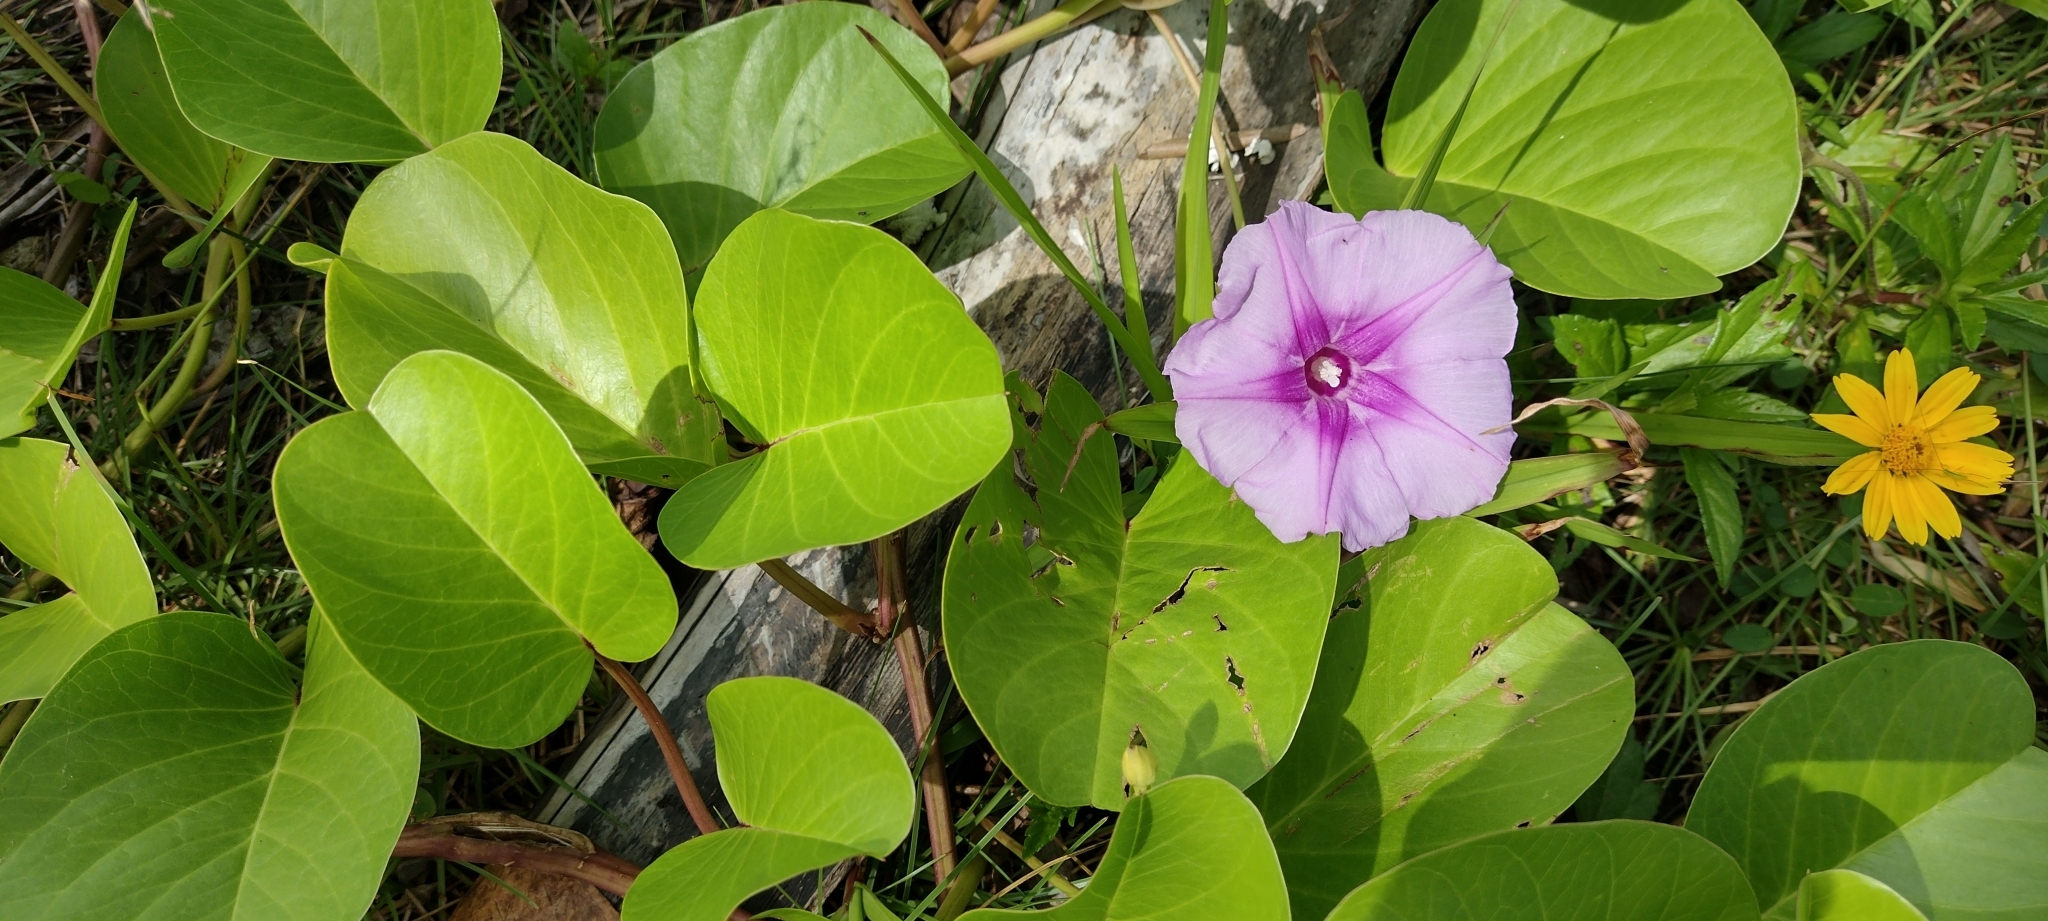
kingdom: Plantae
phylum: Tracheophyta
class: Magnoliopsida
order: Solanales
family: Convolvulaceae
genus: Ipomoea
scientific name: Ipomoea pes-caprae
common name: Beach morning glory
